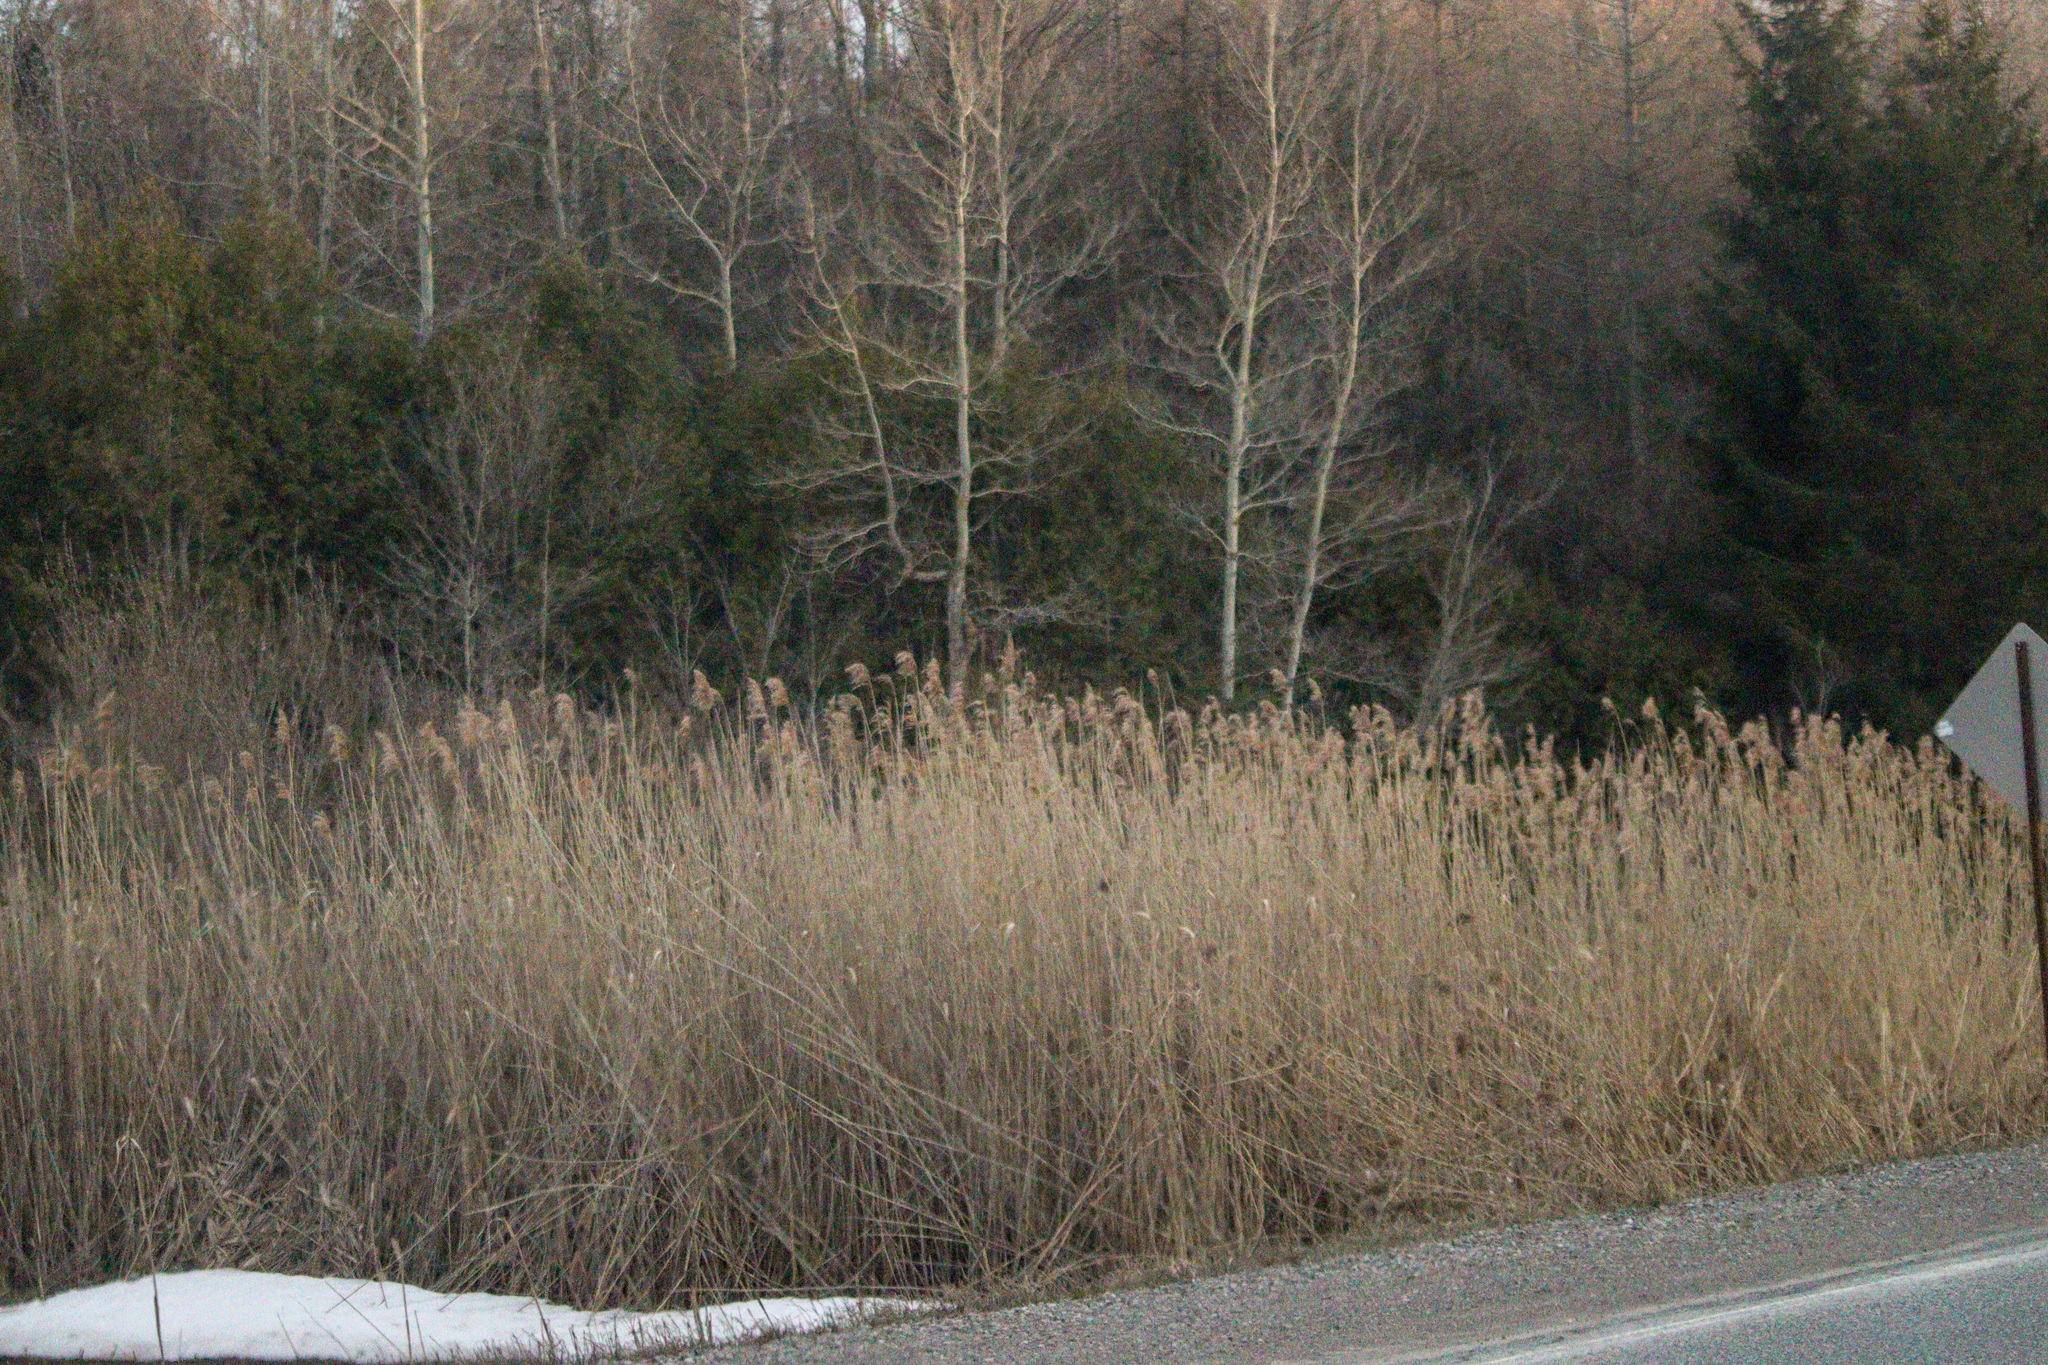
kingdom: Plantae
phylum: Tracheophyta
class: Liliopsida
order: Poales
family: Poaceae
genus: Phragmites
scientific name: Phragmites australis
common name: Common reed
